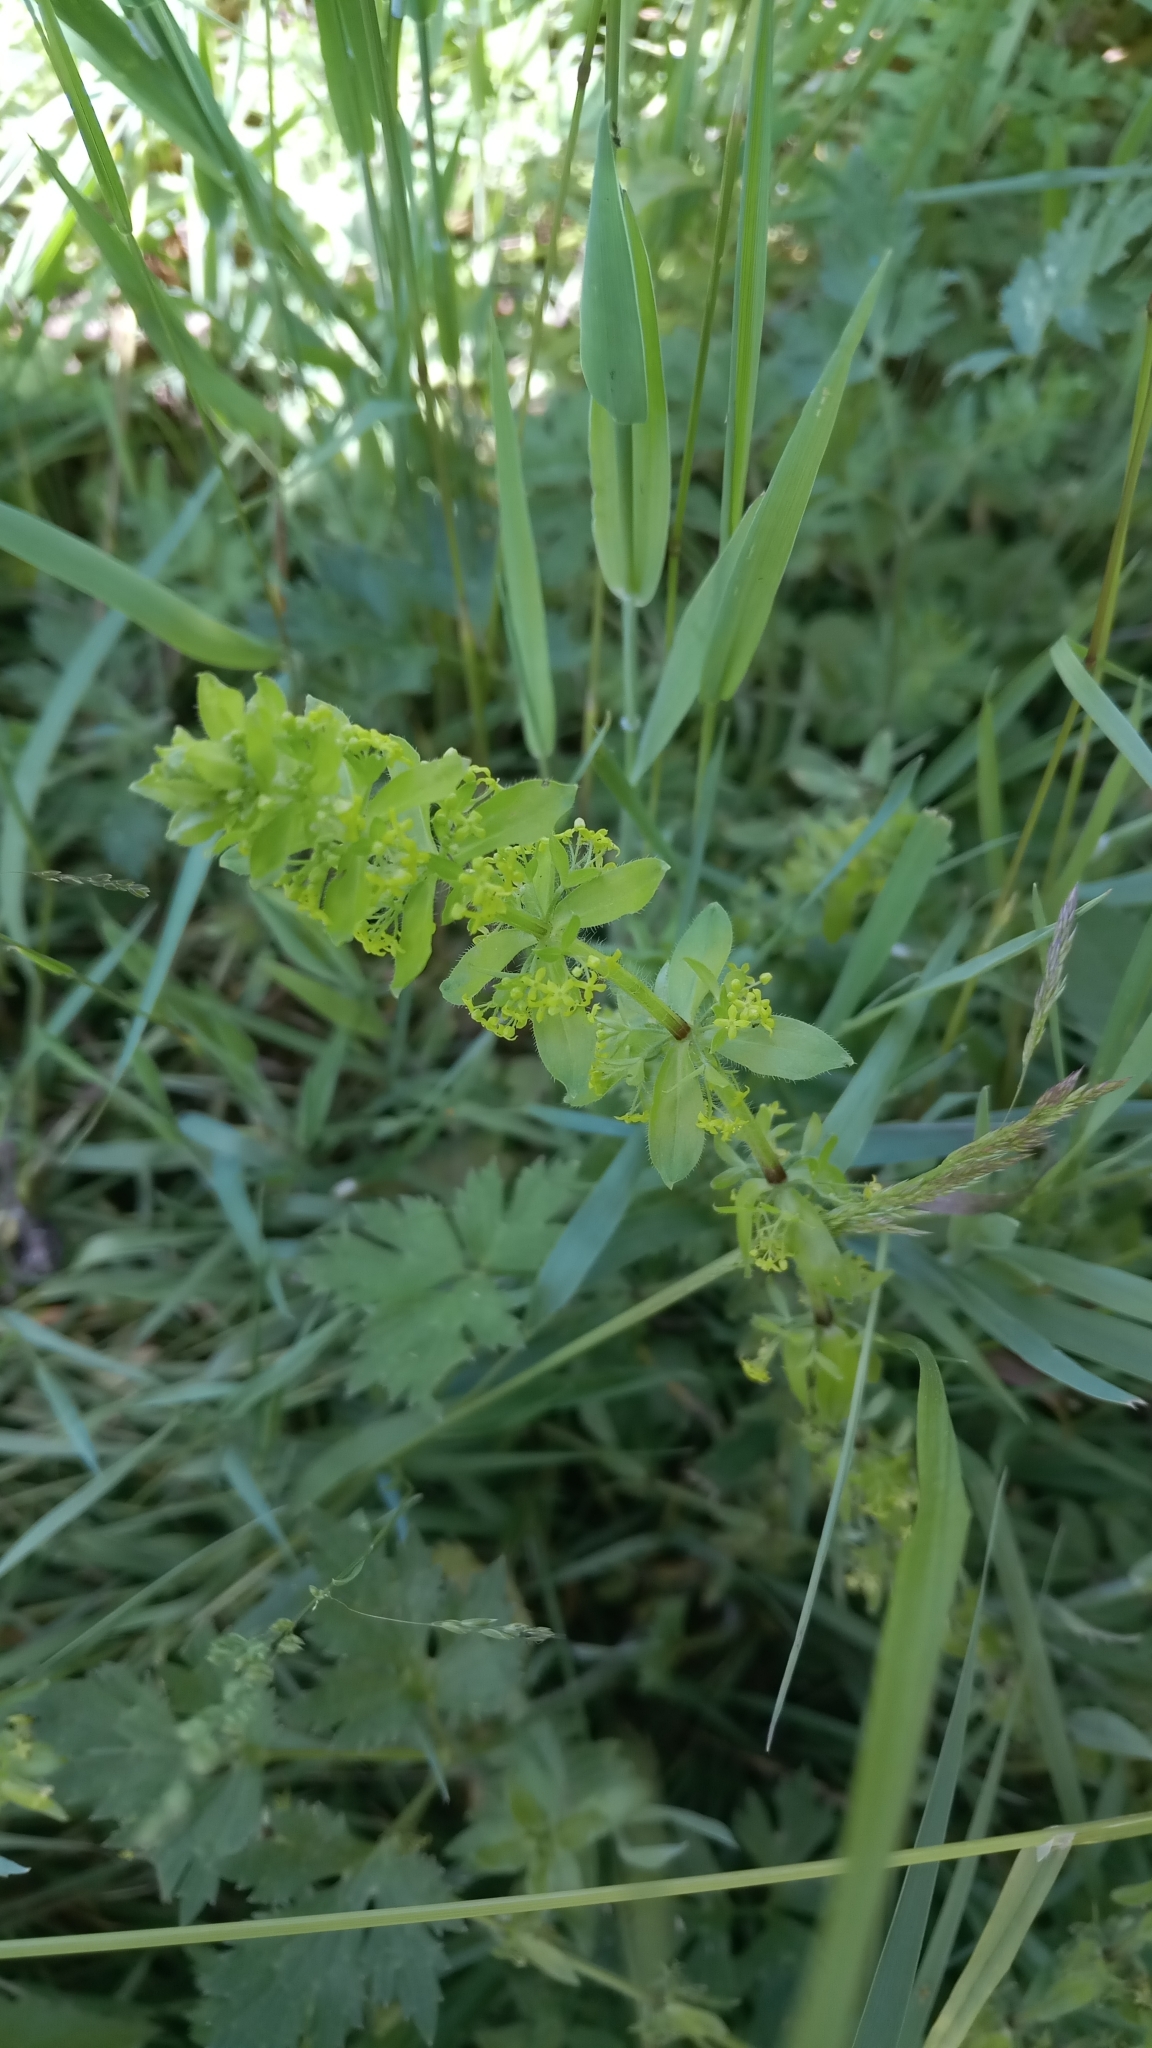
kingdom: Plantae
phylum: Tracheophyta
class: Magnoliopsida
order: Gentianales
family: Rubiaceae
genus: Cruciata
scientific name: Cruciata laevipes
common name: Crosswort
